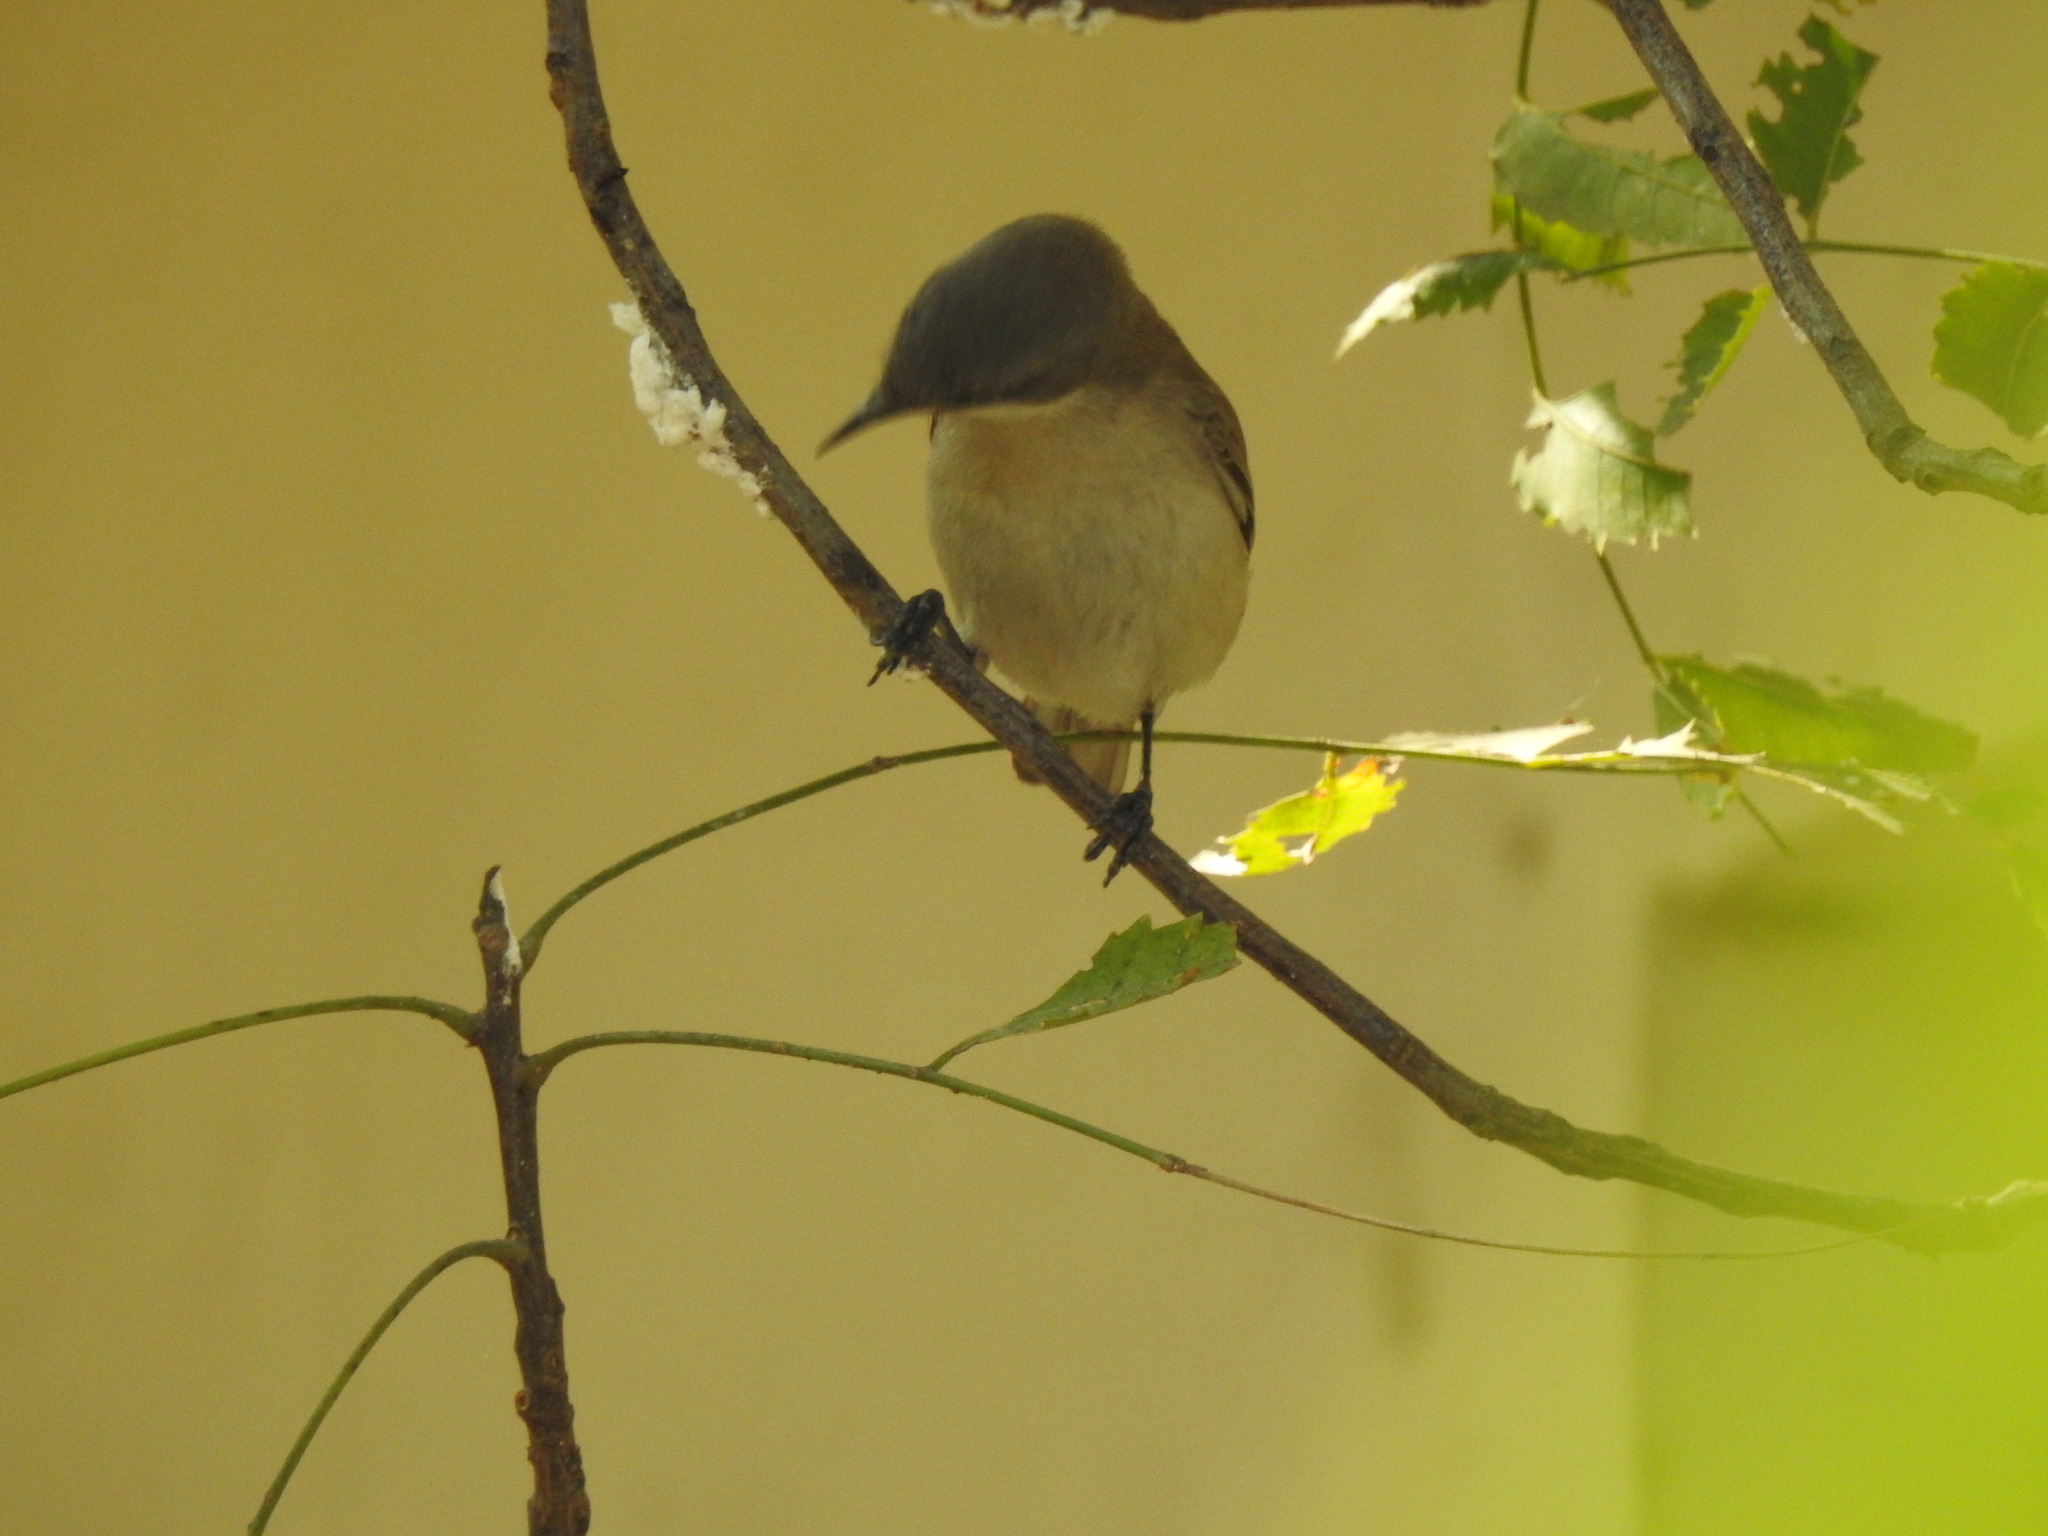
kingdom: Animalia
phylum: Chordata
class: Aves
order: Passeriformes
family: Sylviidae
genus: Sylvia
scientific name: Sylvia curruca
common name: Lesser whitethroat
